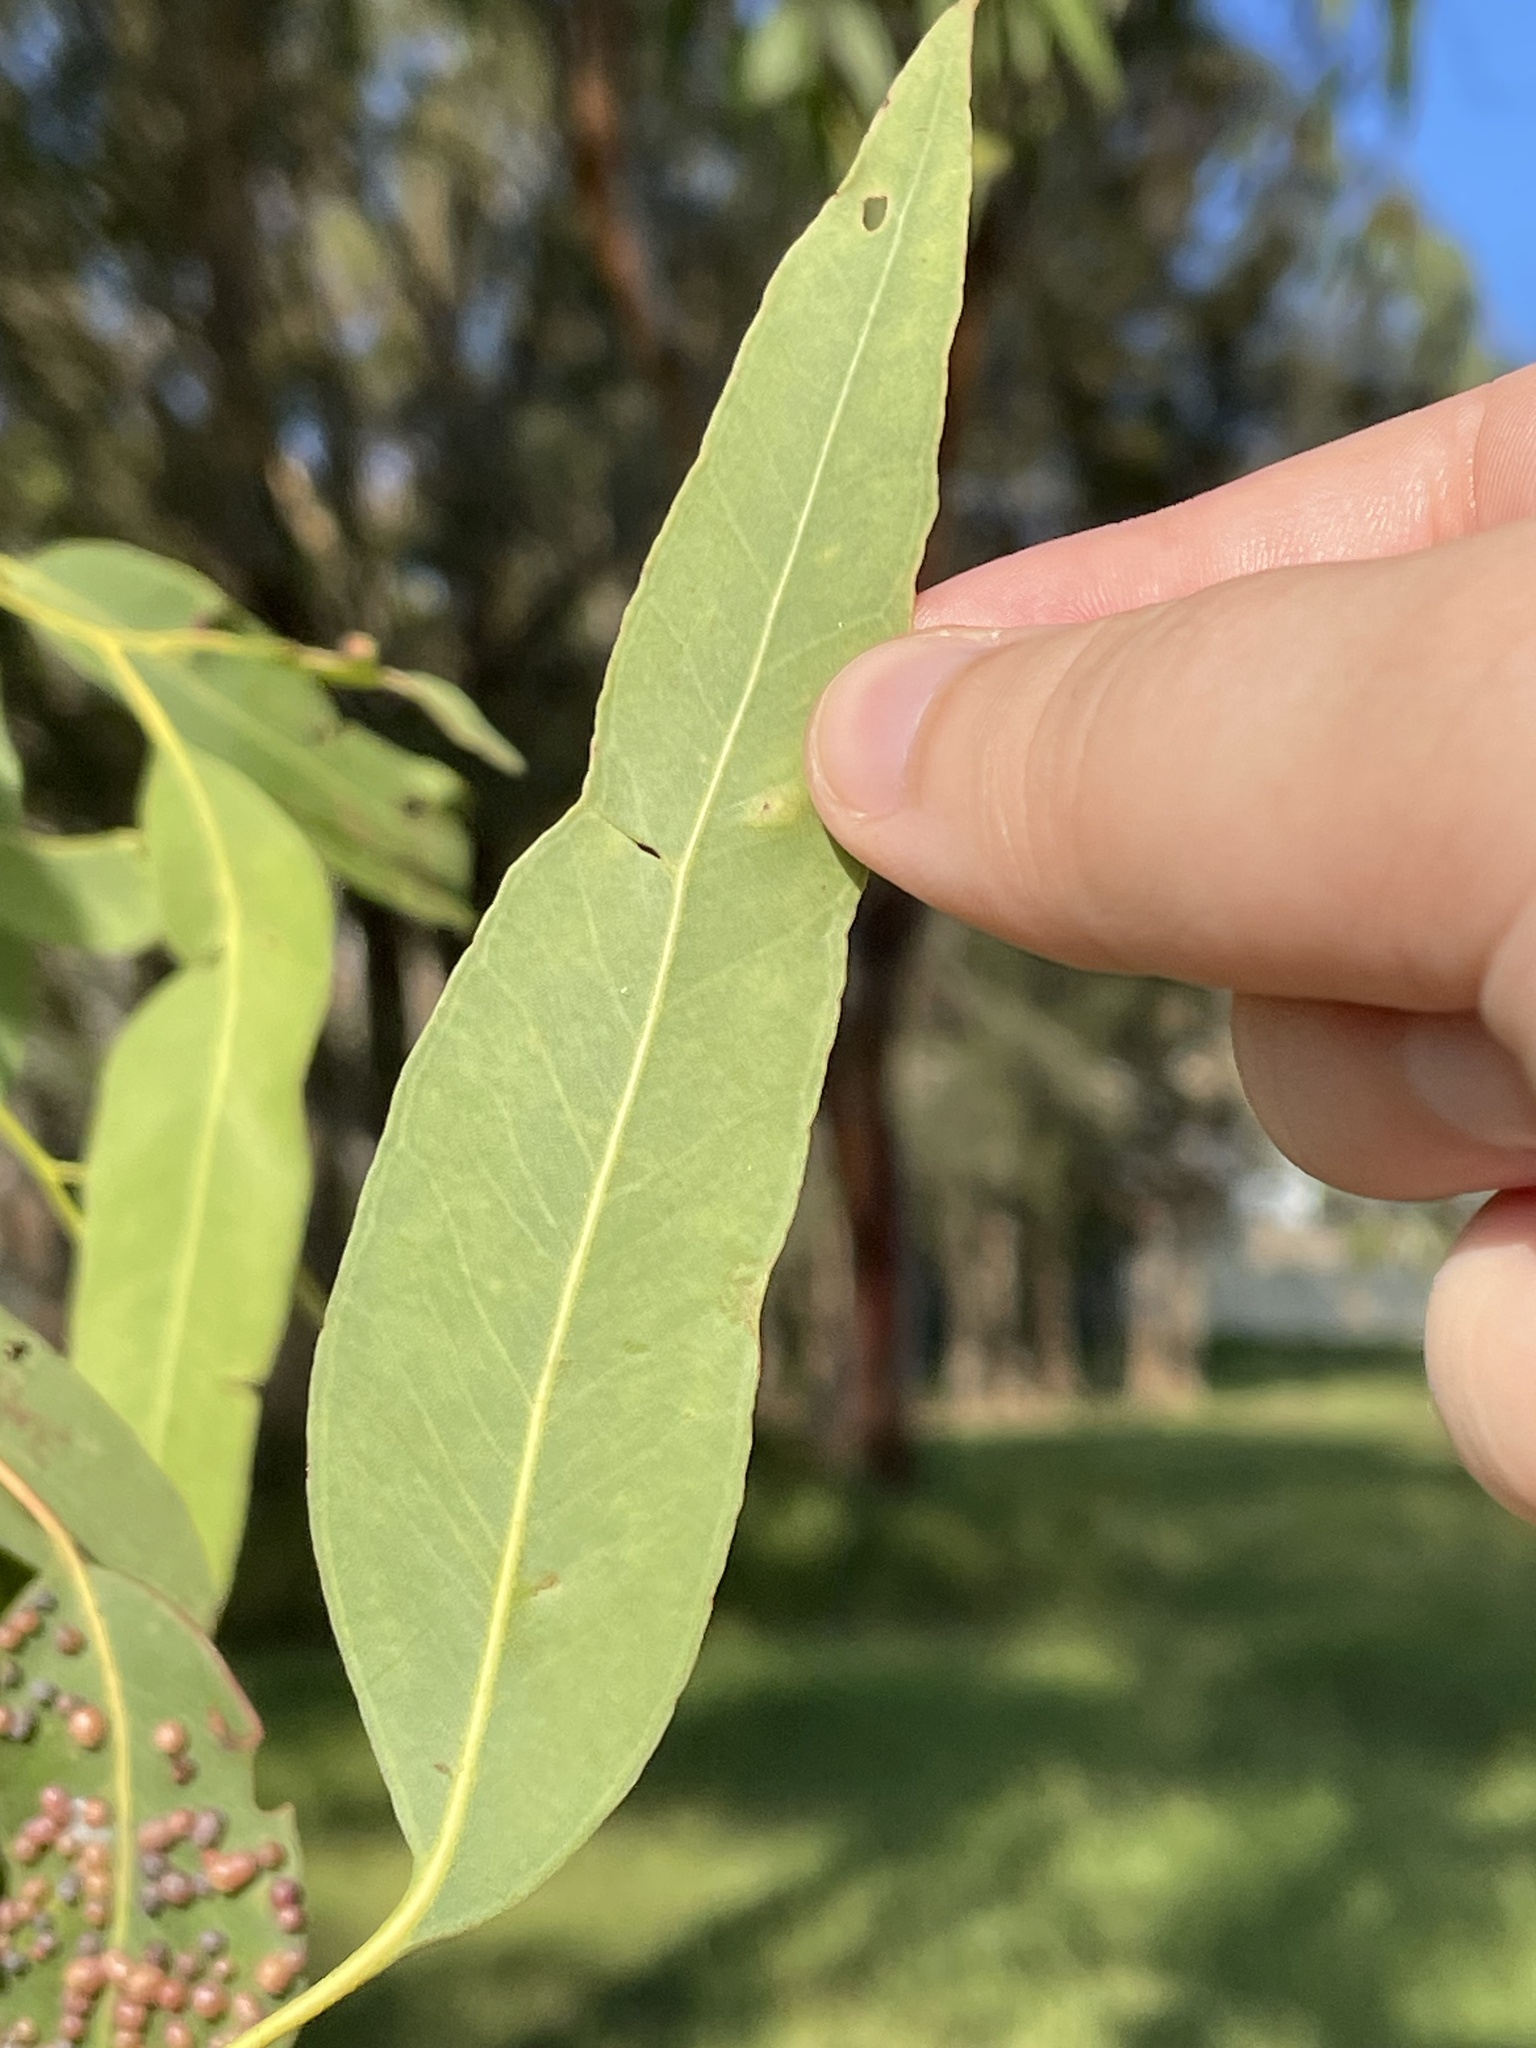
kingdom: Plantae
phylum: Tracheophyta
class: Magnoliopsida
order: Myrtales
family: Myrtaceae
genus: Eucalyptus
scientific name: Eucalyptus paniculata
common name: Gray ironbark
